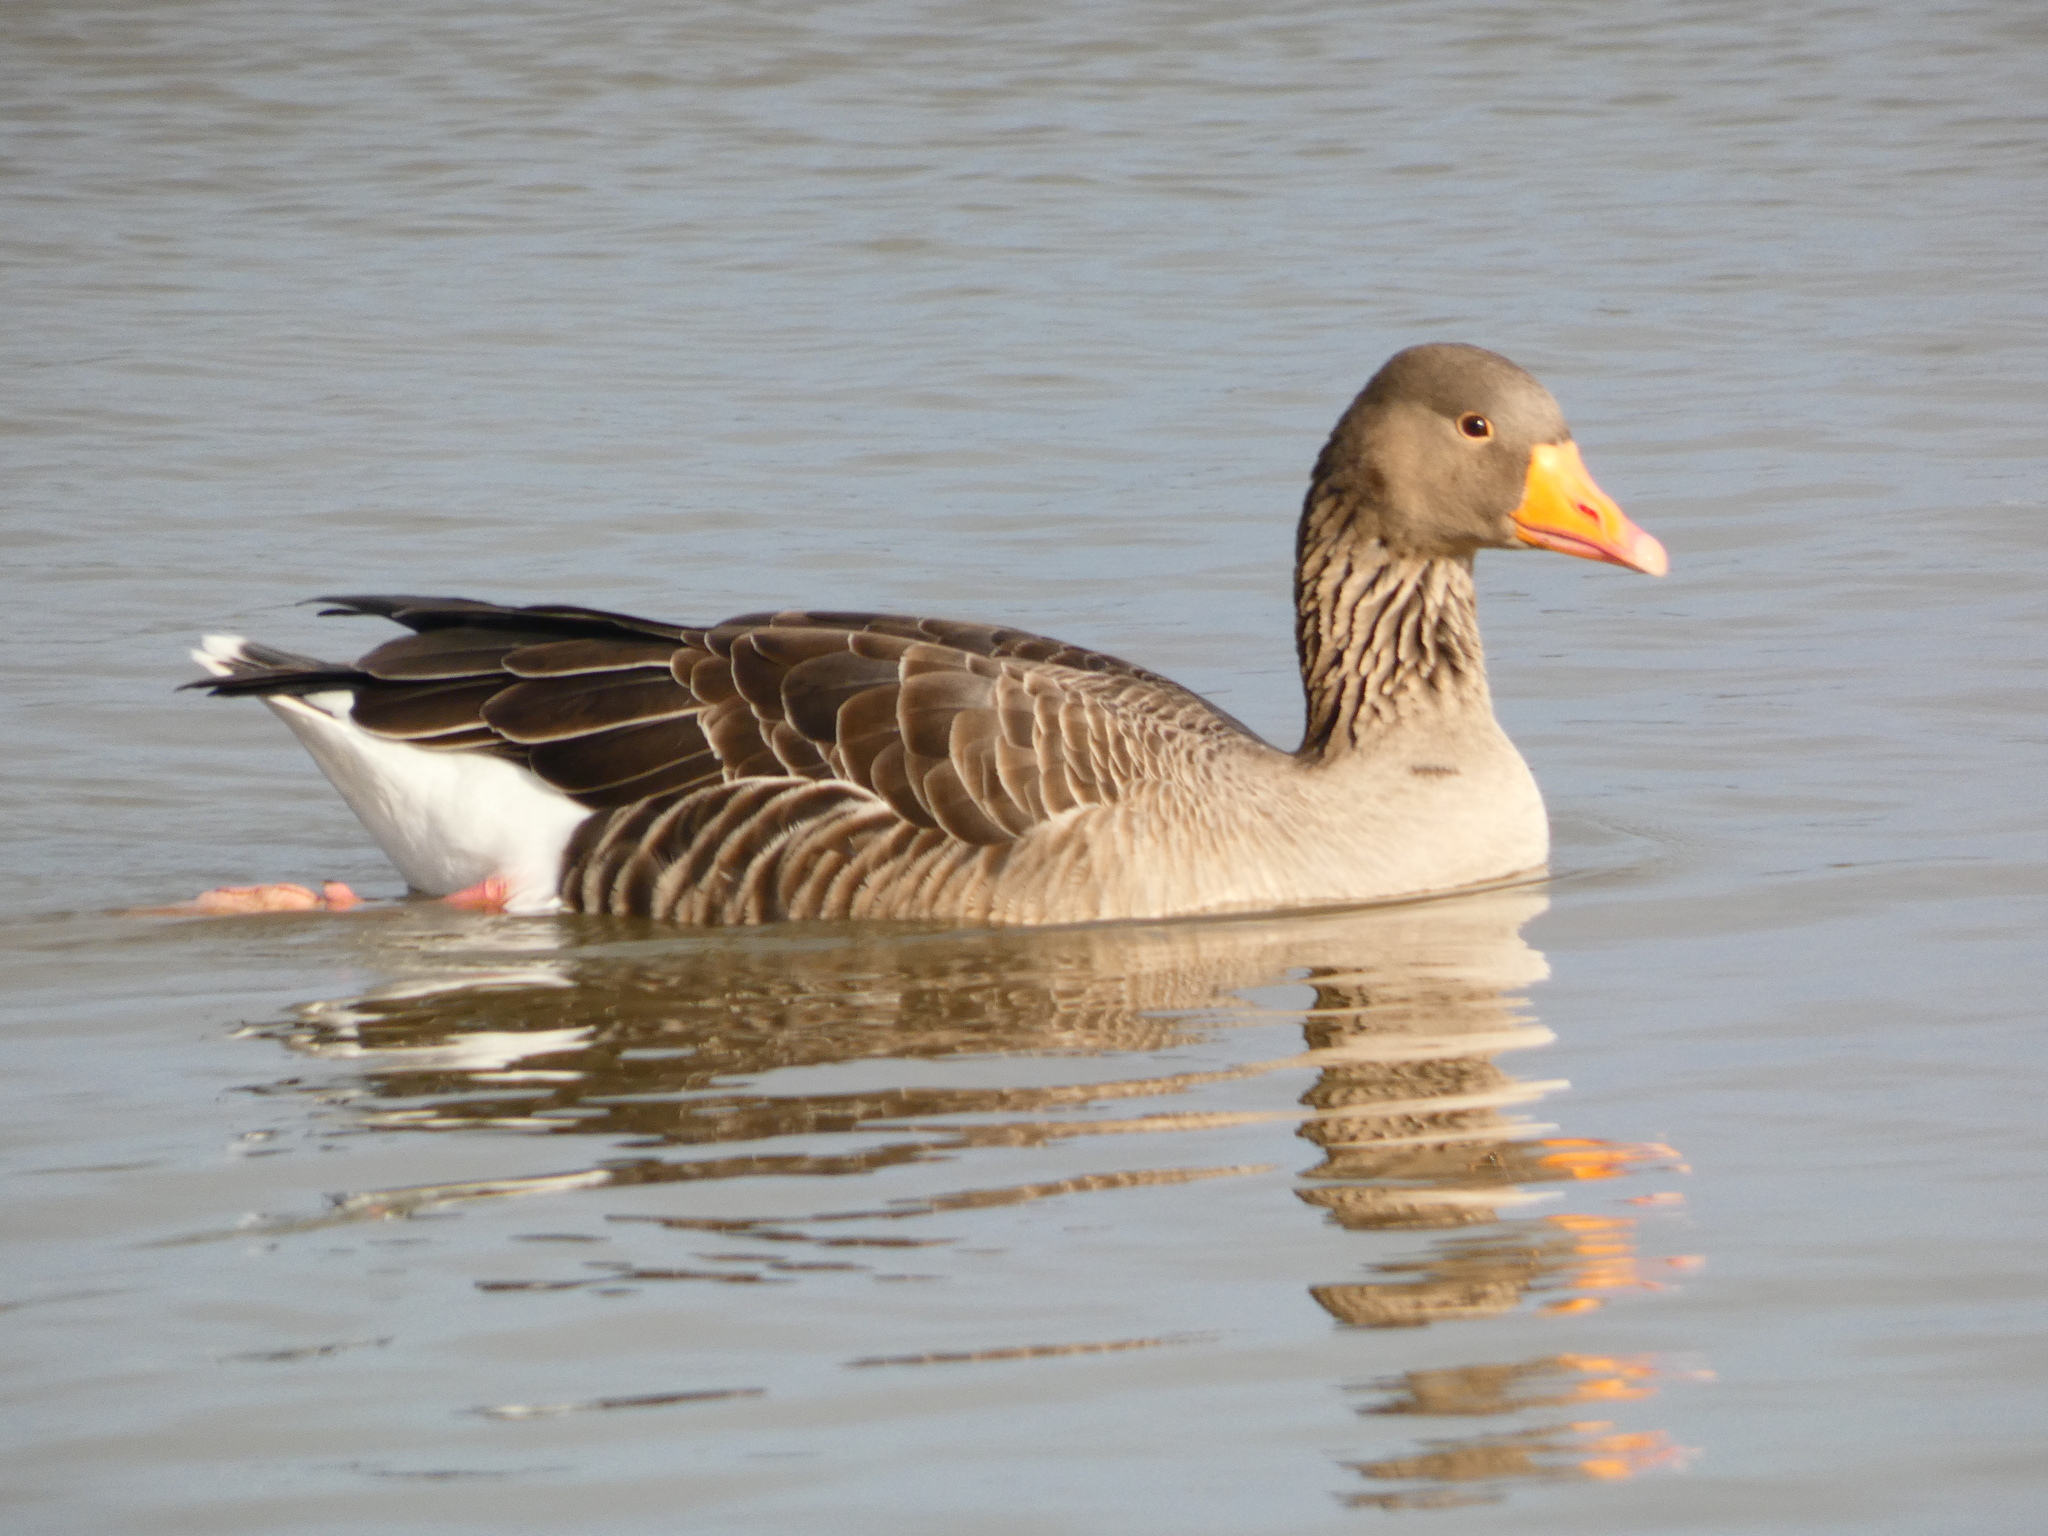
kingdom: Animalia
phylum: Chordata
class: Aves
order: Anseriformes
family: Anatidae
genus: Anser
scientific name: Anser anser
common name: Greylag goose
